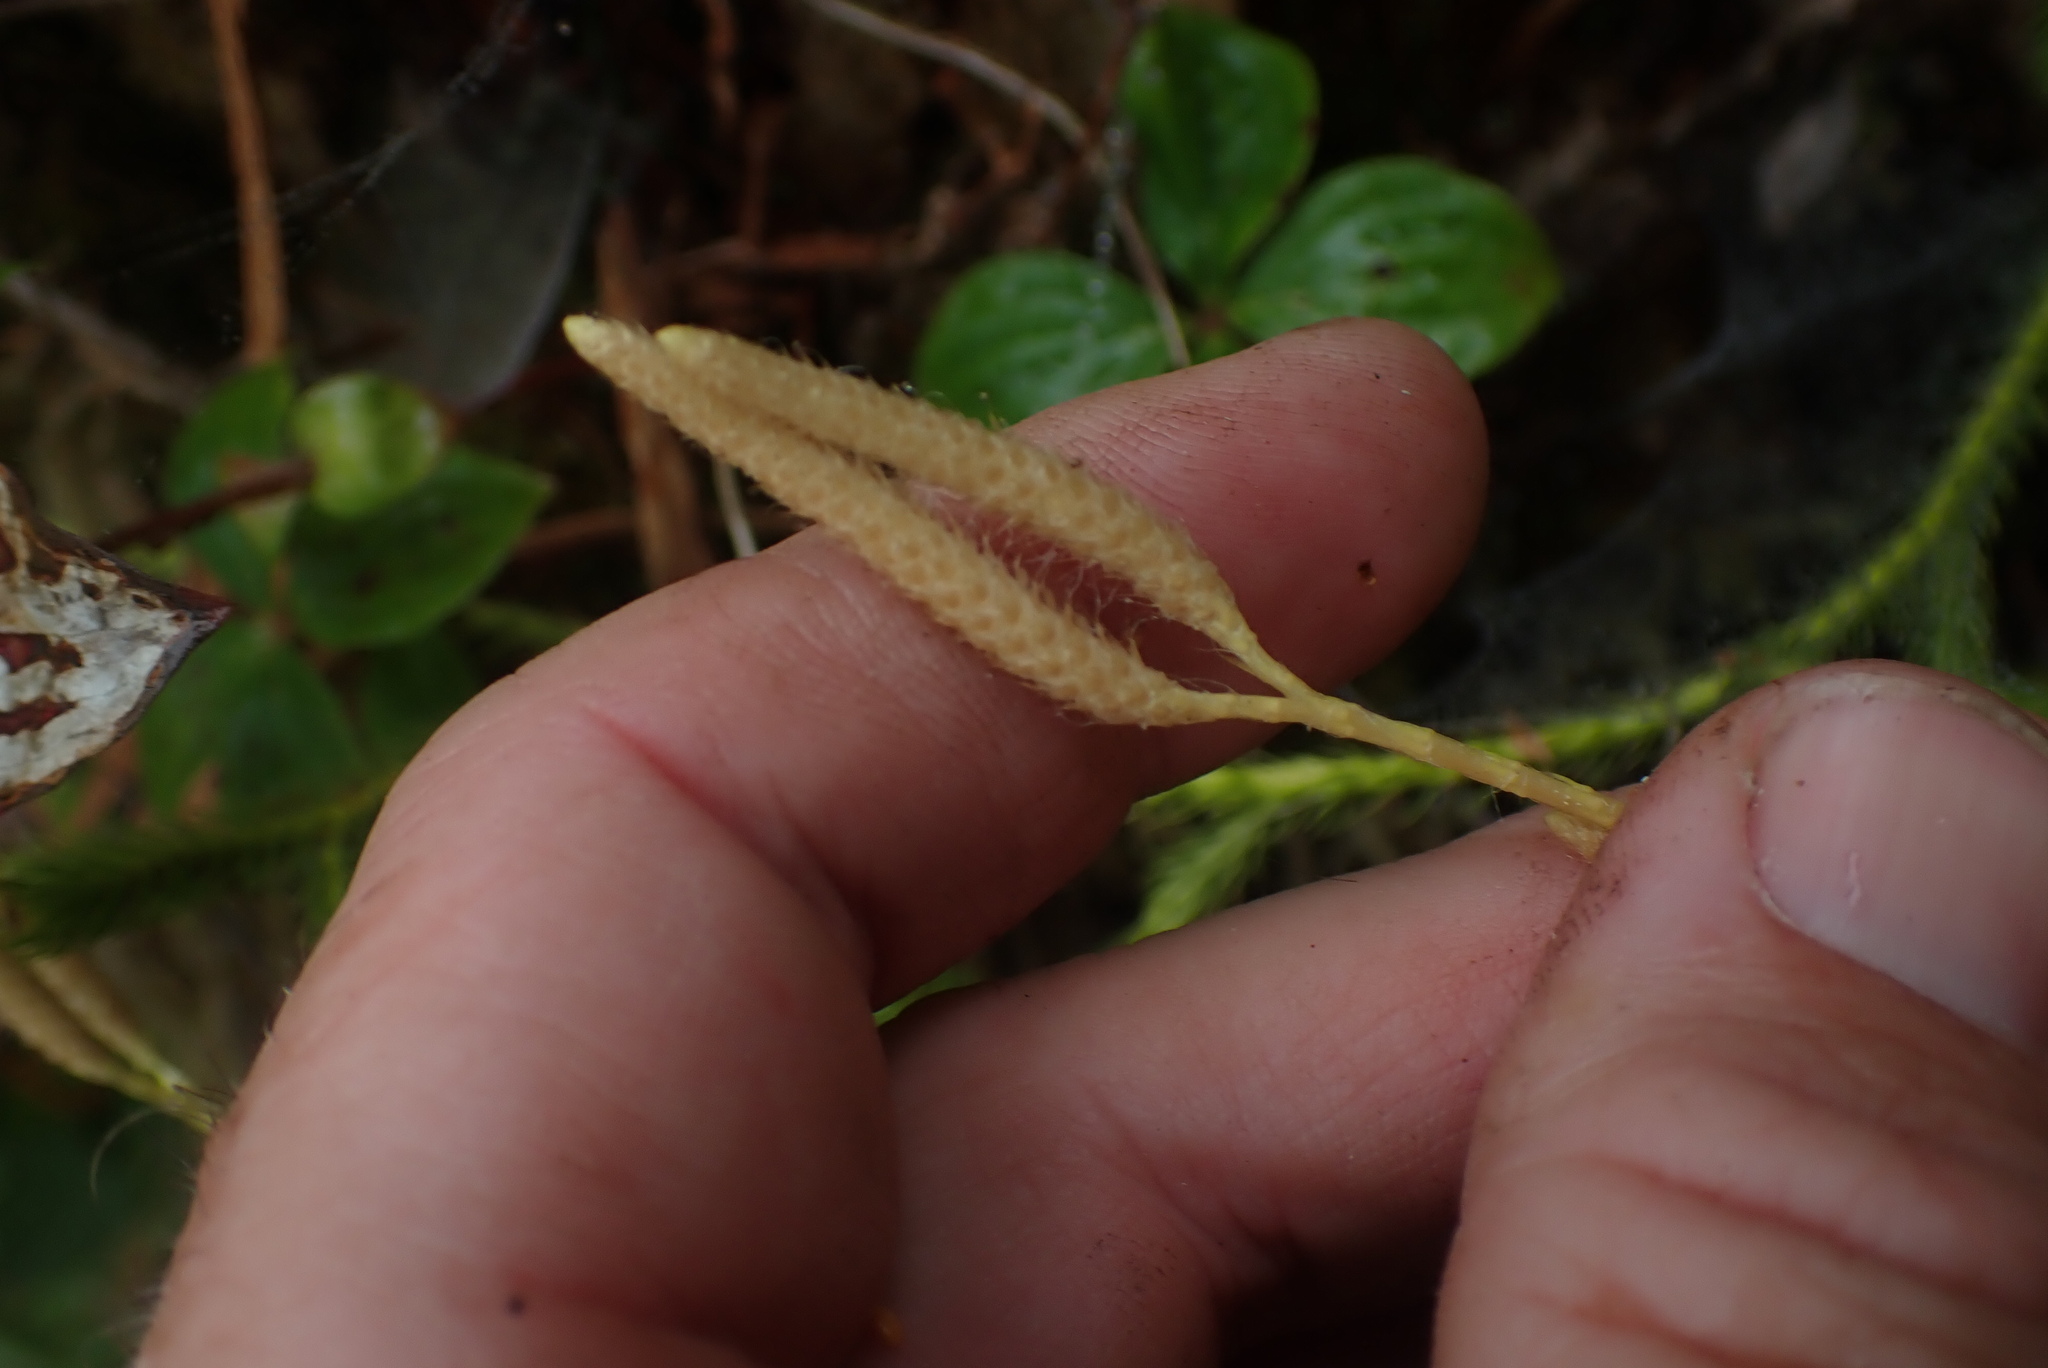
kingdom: Plantae
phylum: Tracheophyta
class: Lycopodiopsida
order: Lycopodiales
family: Lycopodiaceae
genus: Lycopodium
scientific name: Lycopodium clavatum
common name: Stag's-horn clubmoss
